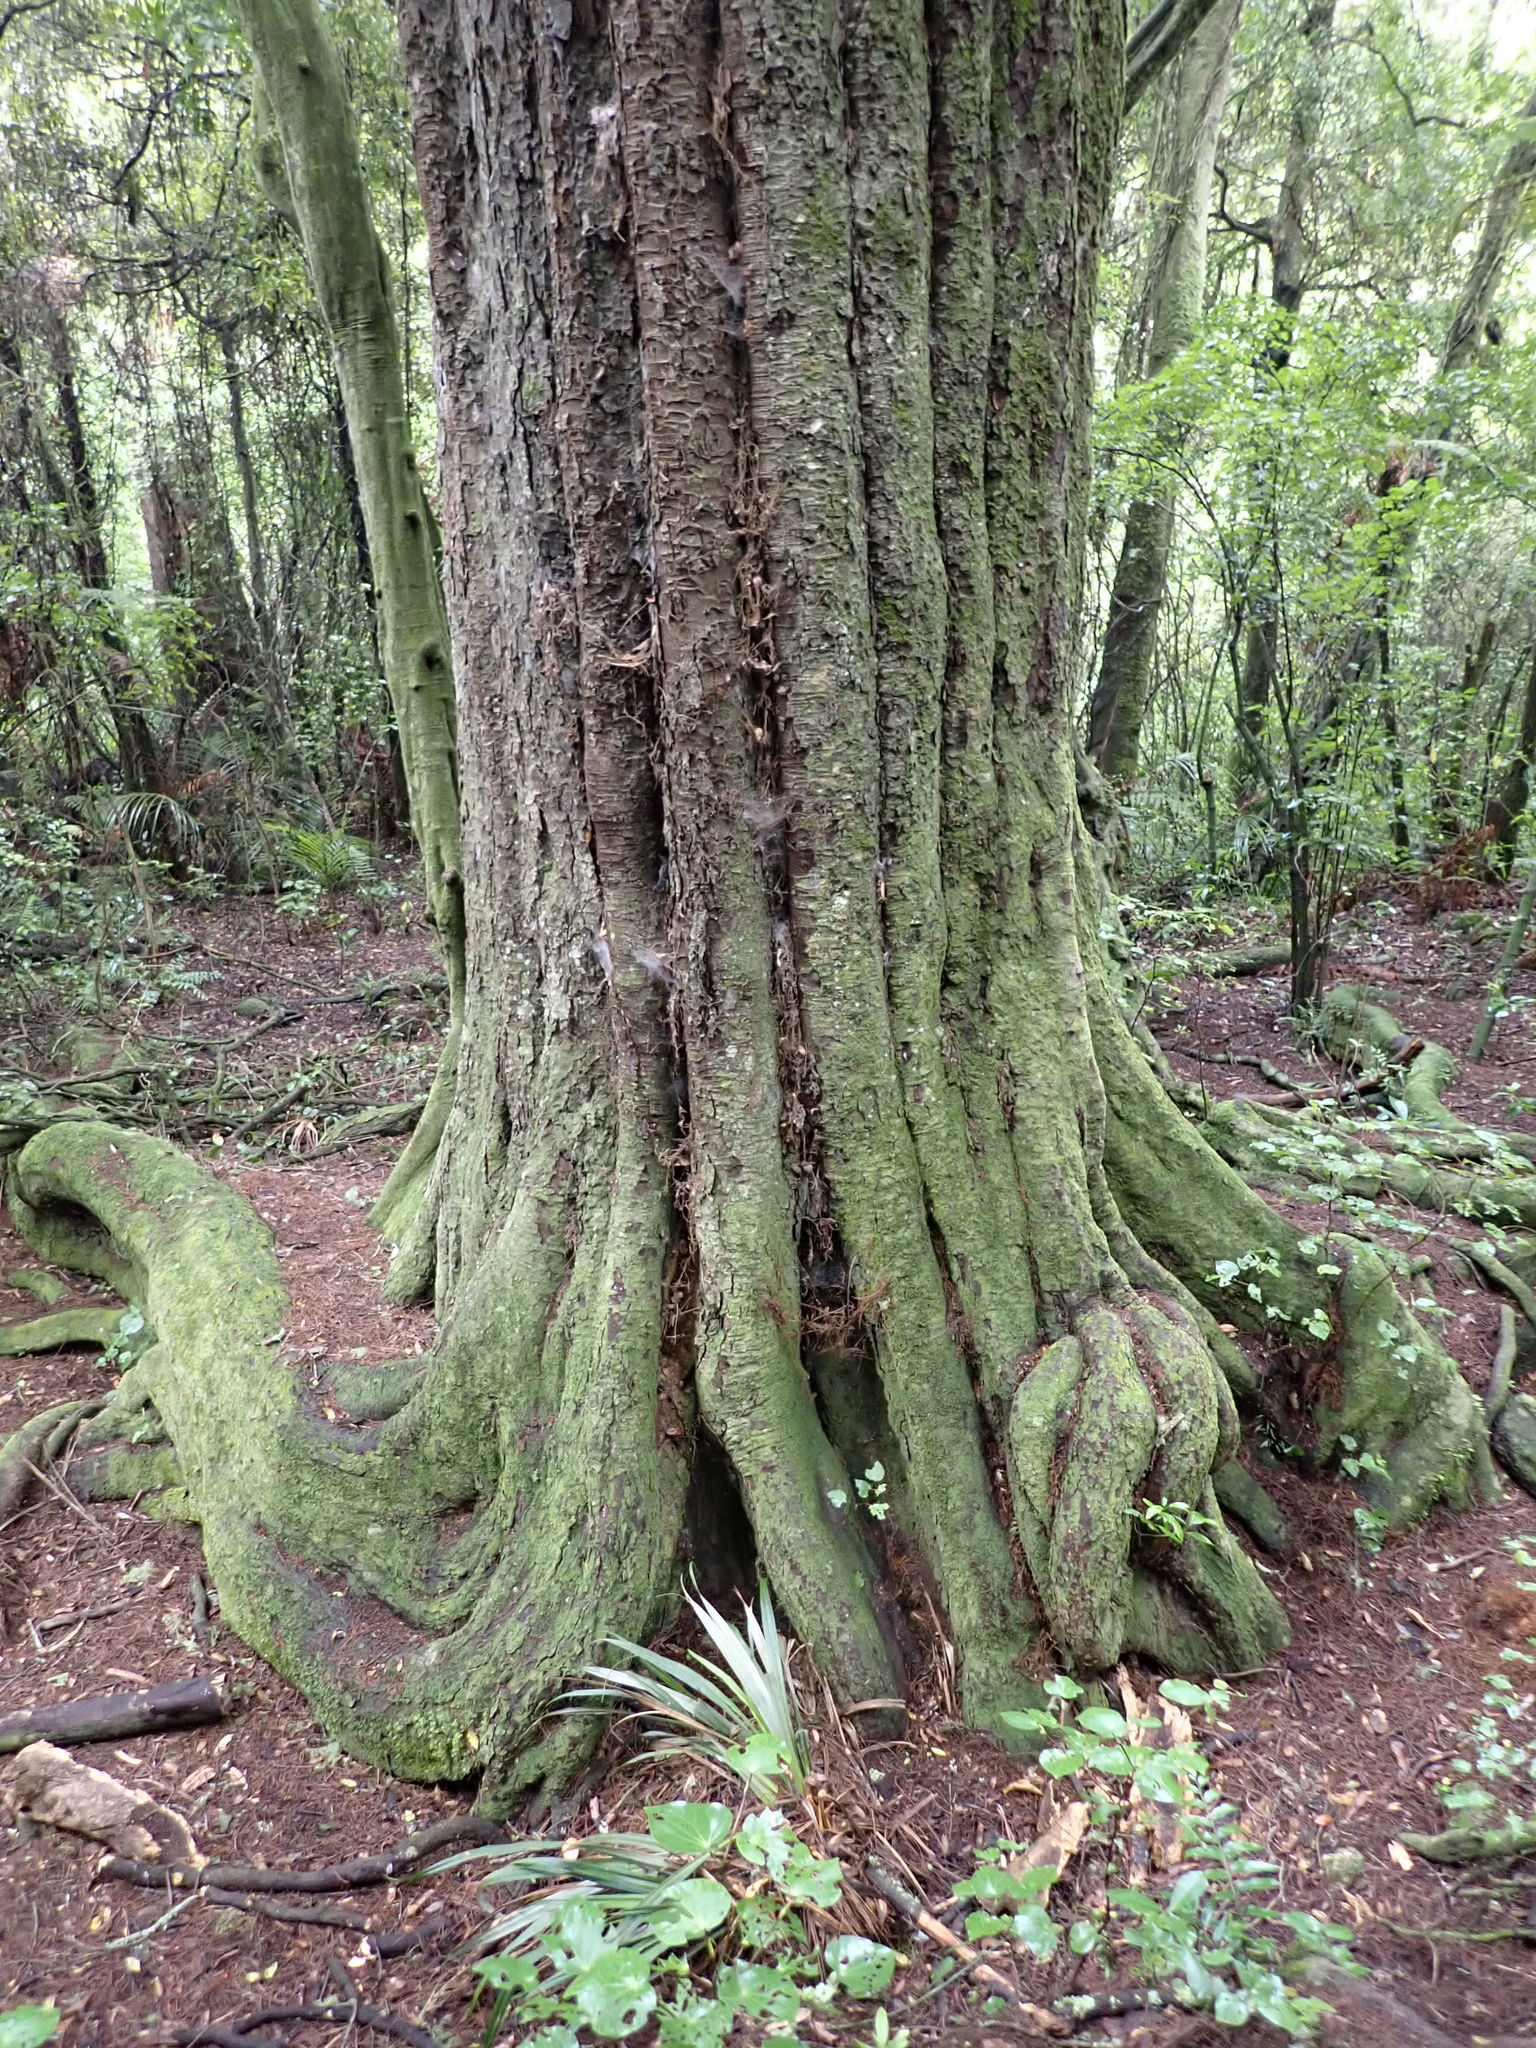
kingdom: Plantae
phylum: Tracheophyta
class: Pinopsida
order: Pinales
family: Podocarpaceae
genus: Dacrycarpus
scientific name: Dacrycarpus dacrydioides
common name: White pine
